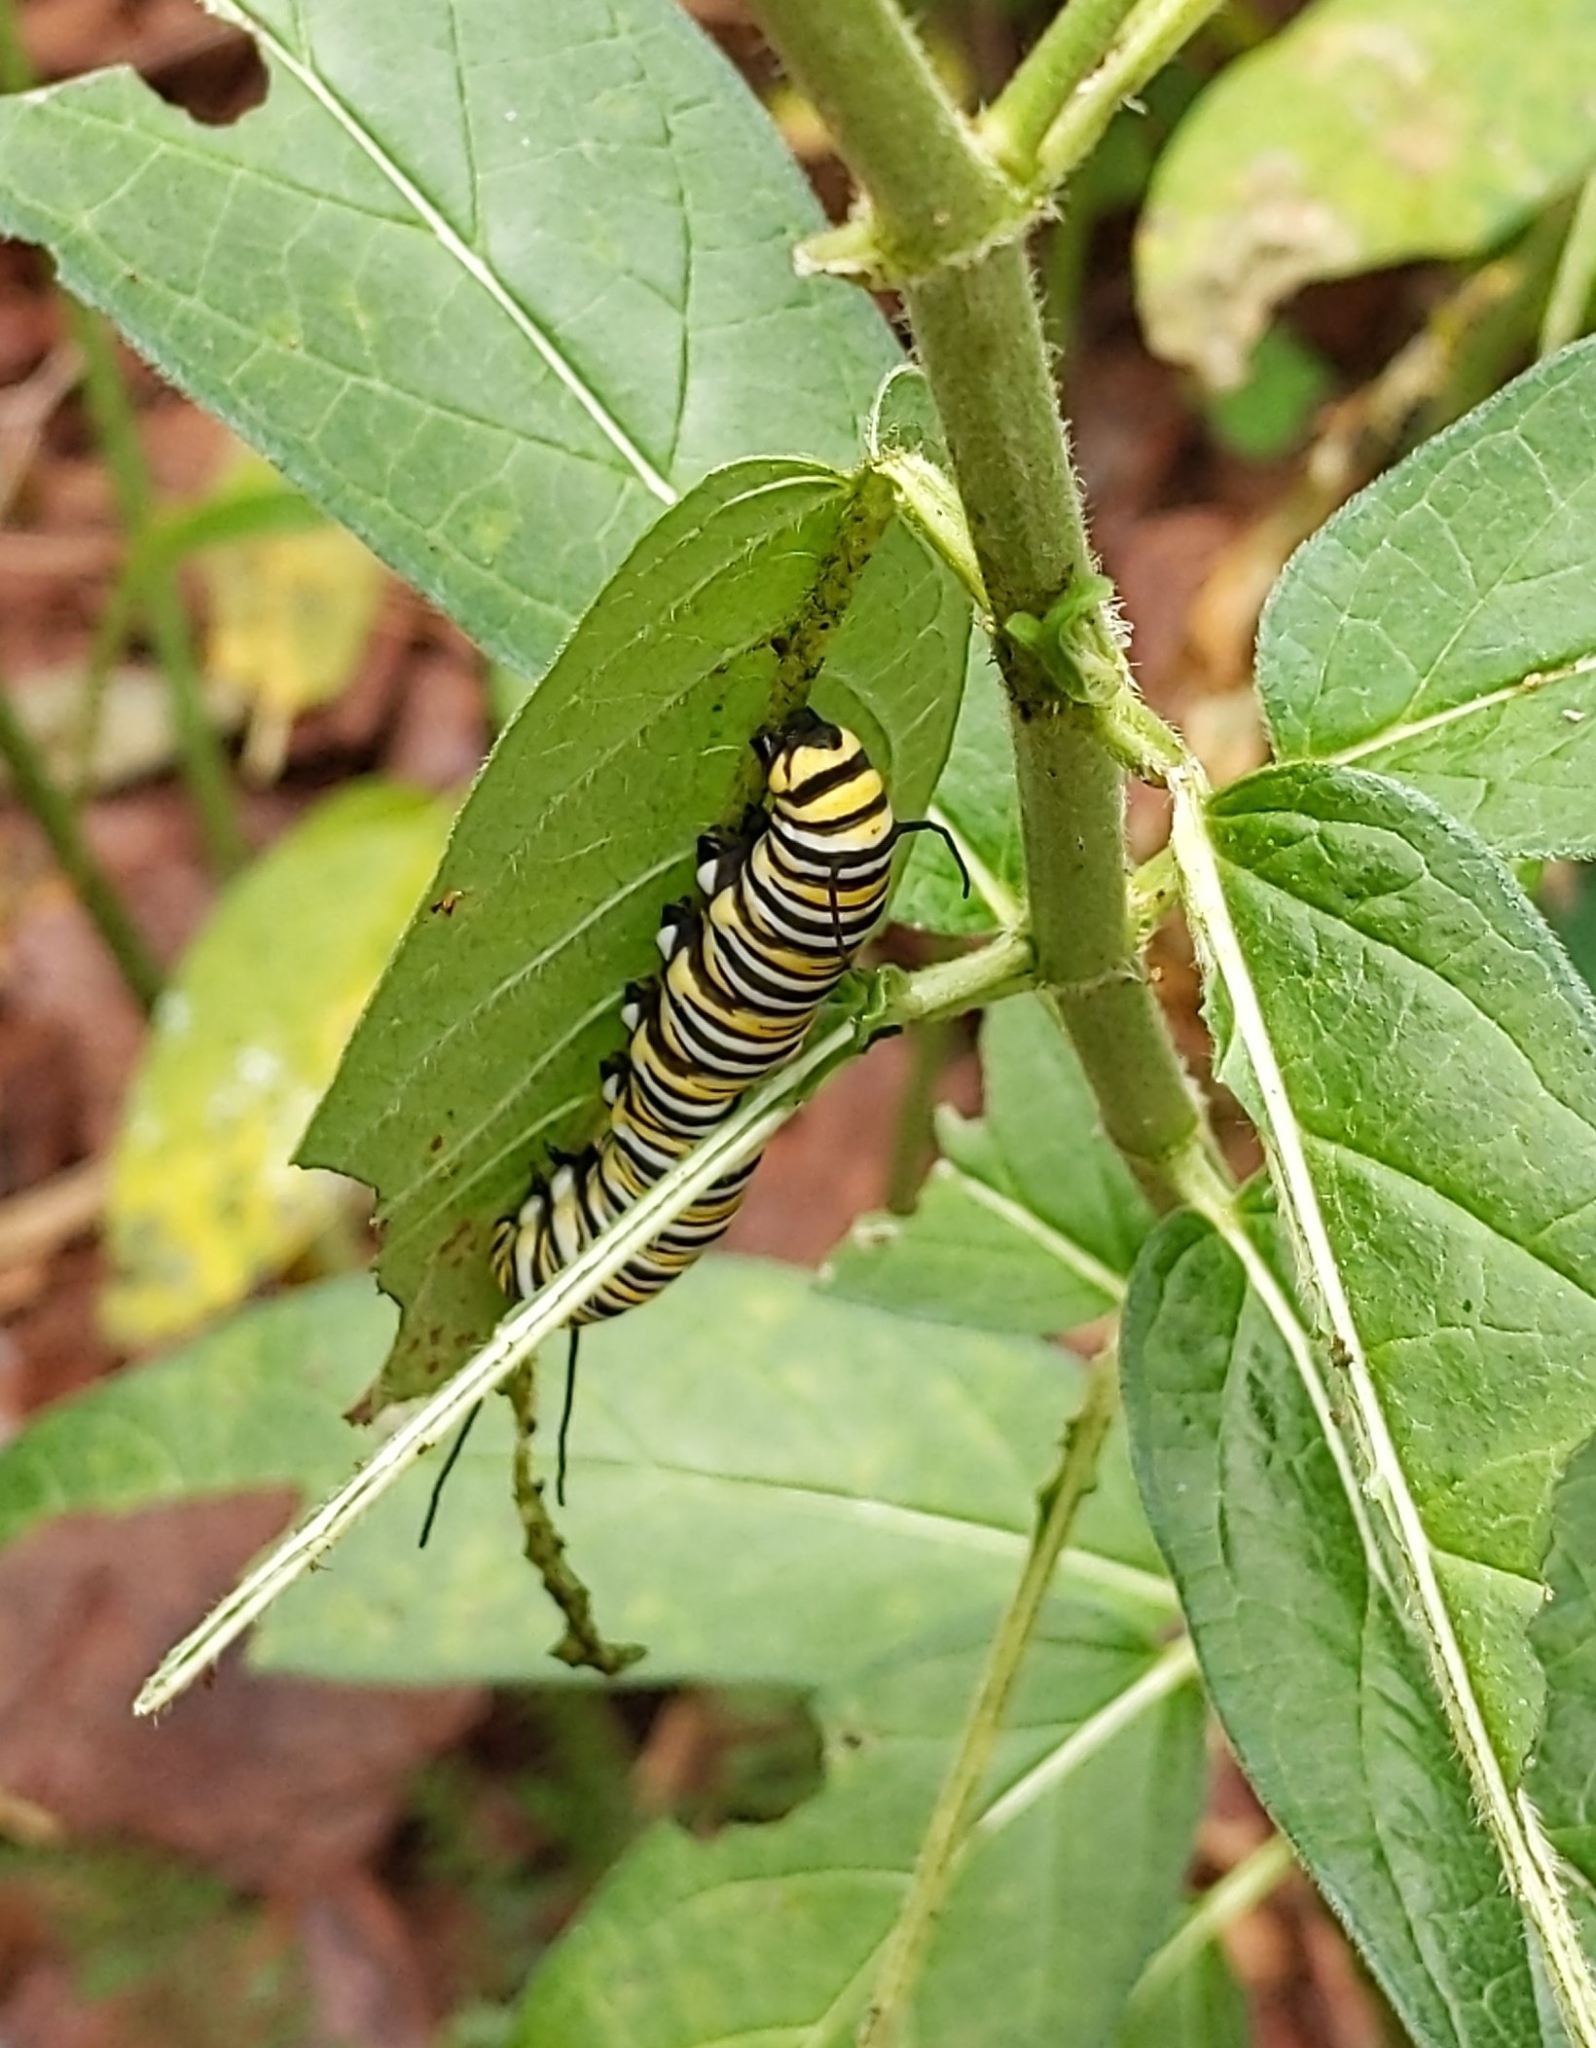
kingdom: Animalia
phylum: Arthropoda
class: Insecta
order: Lepidoptera
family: Nymphalidae
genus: Danaus
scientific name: Danaus plexippus
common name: Monarch
